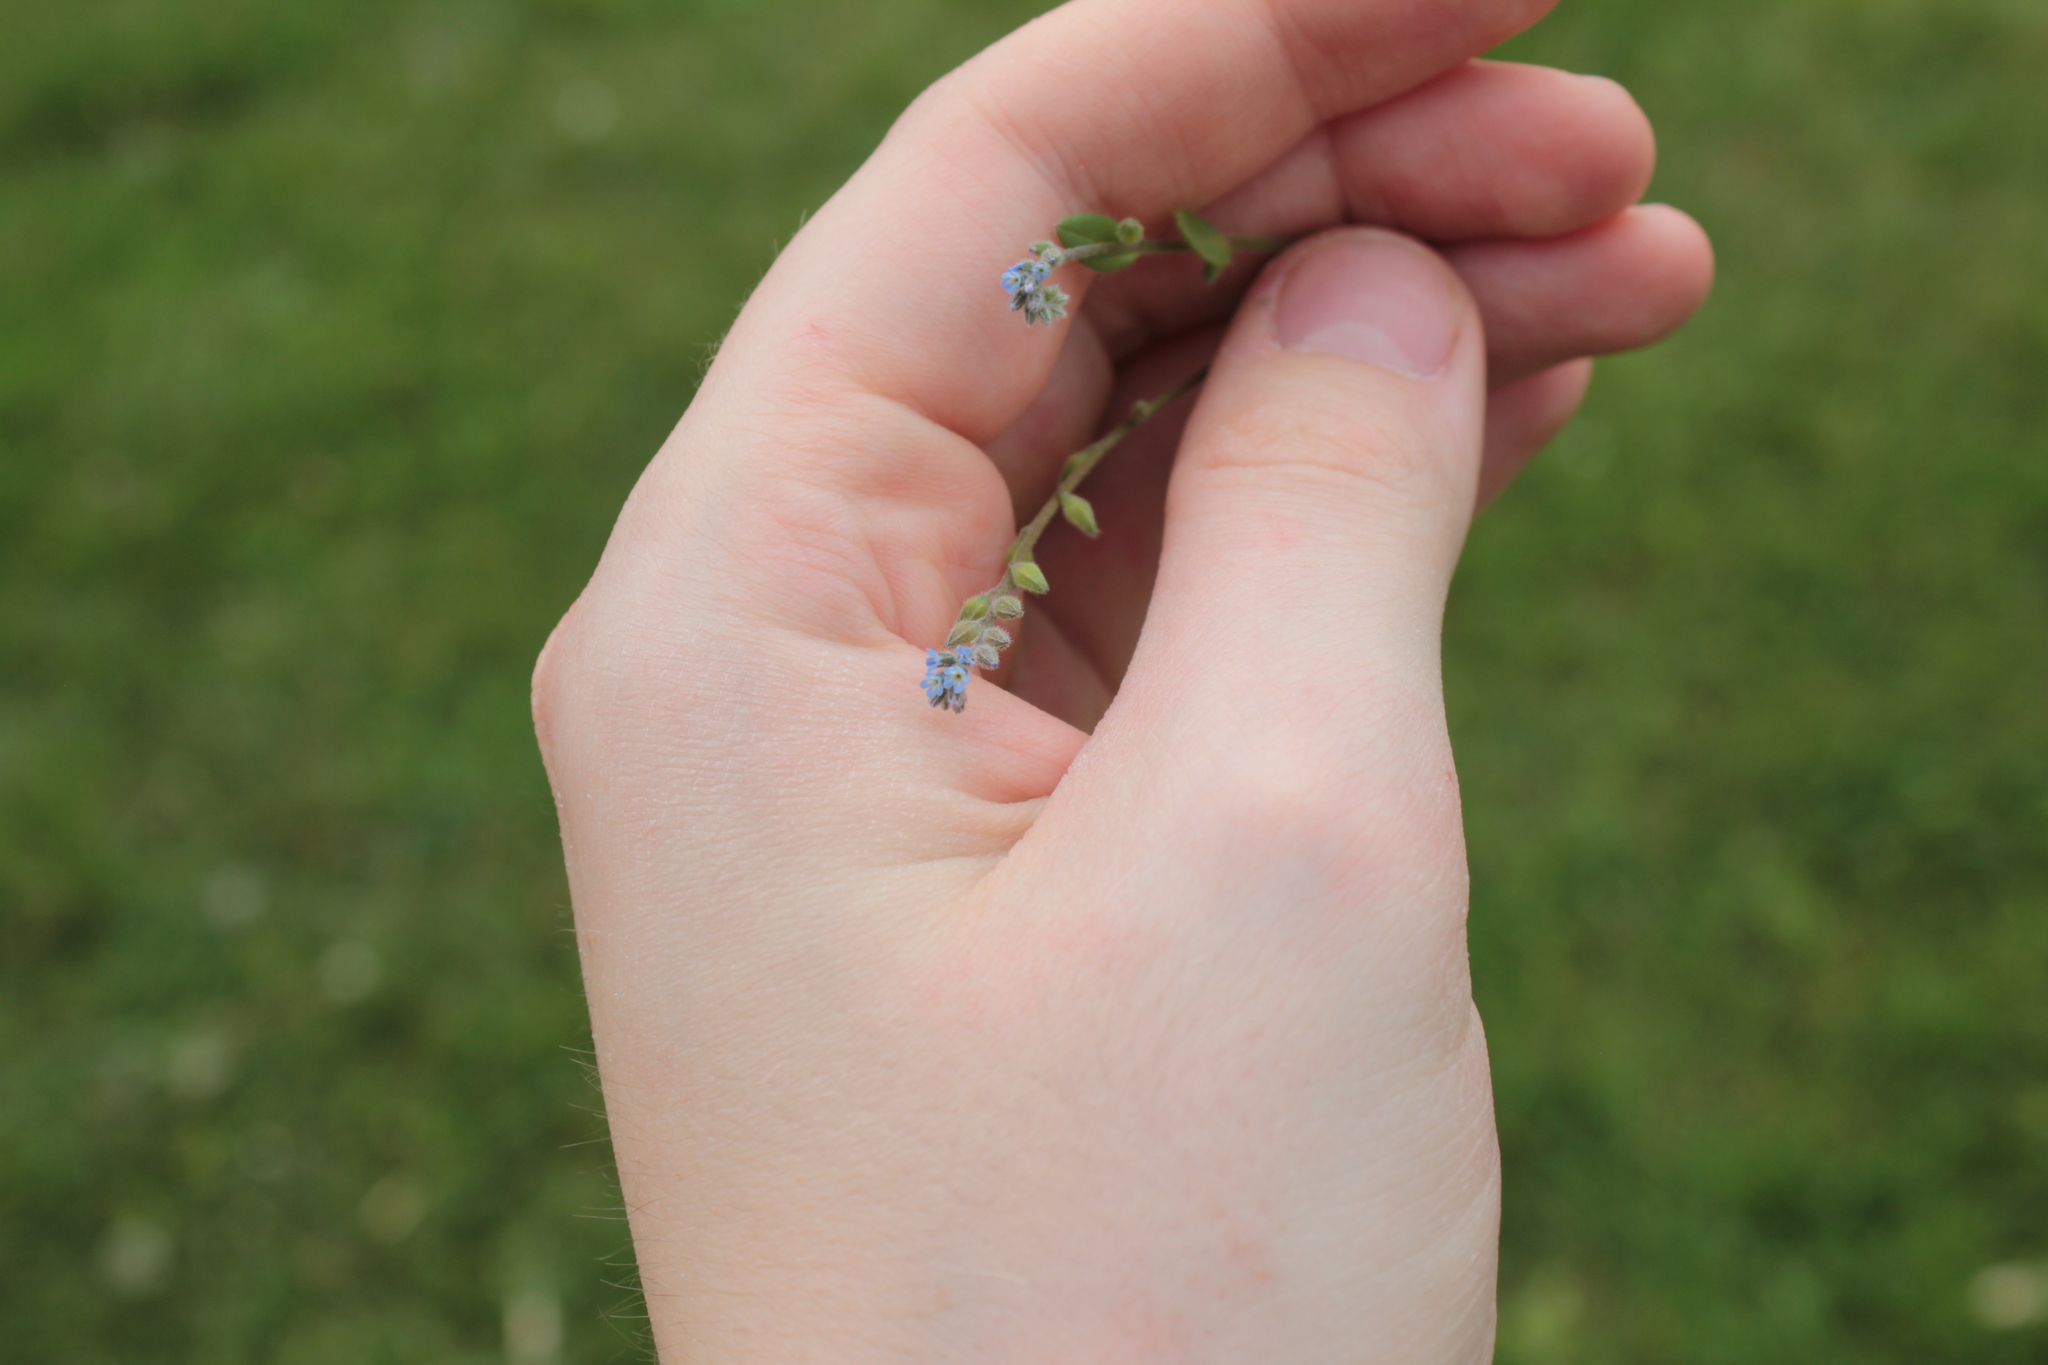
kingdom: Plantae
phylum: Tracheophyta
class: Magnoliopsida
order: Boraginales
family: Boraginaceae
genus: Myosotis
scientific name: Myosotis stricta
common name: Strict forget-me-not
